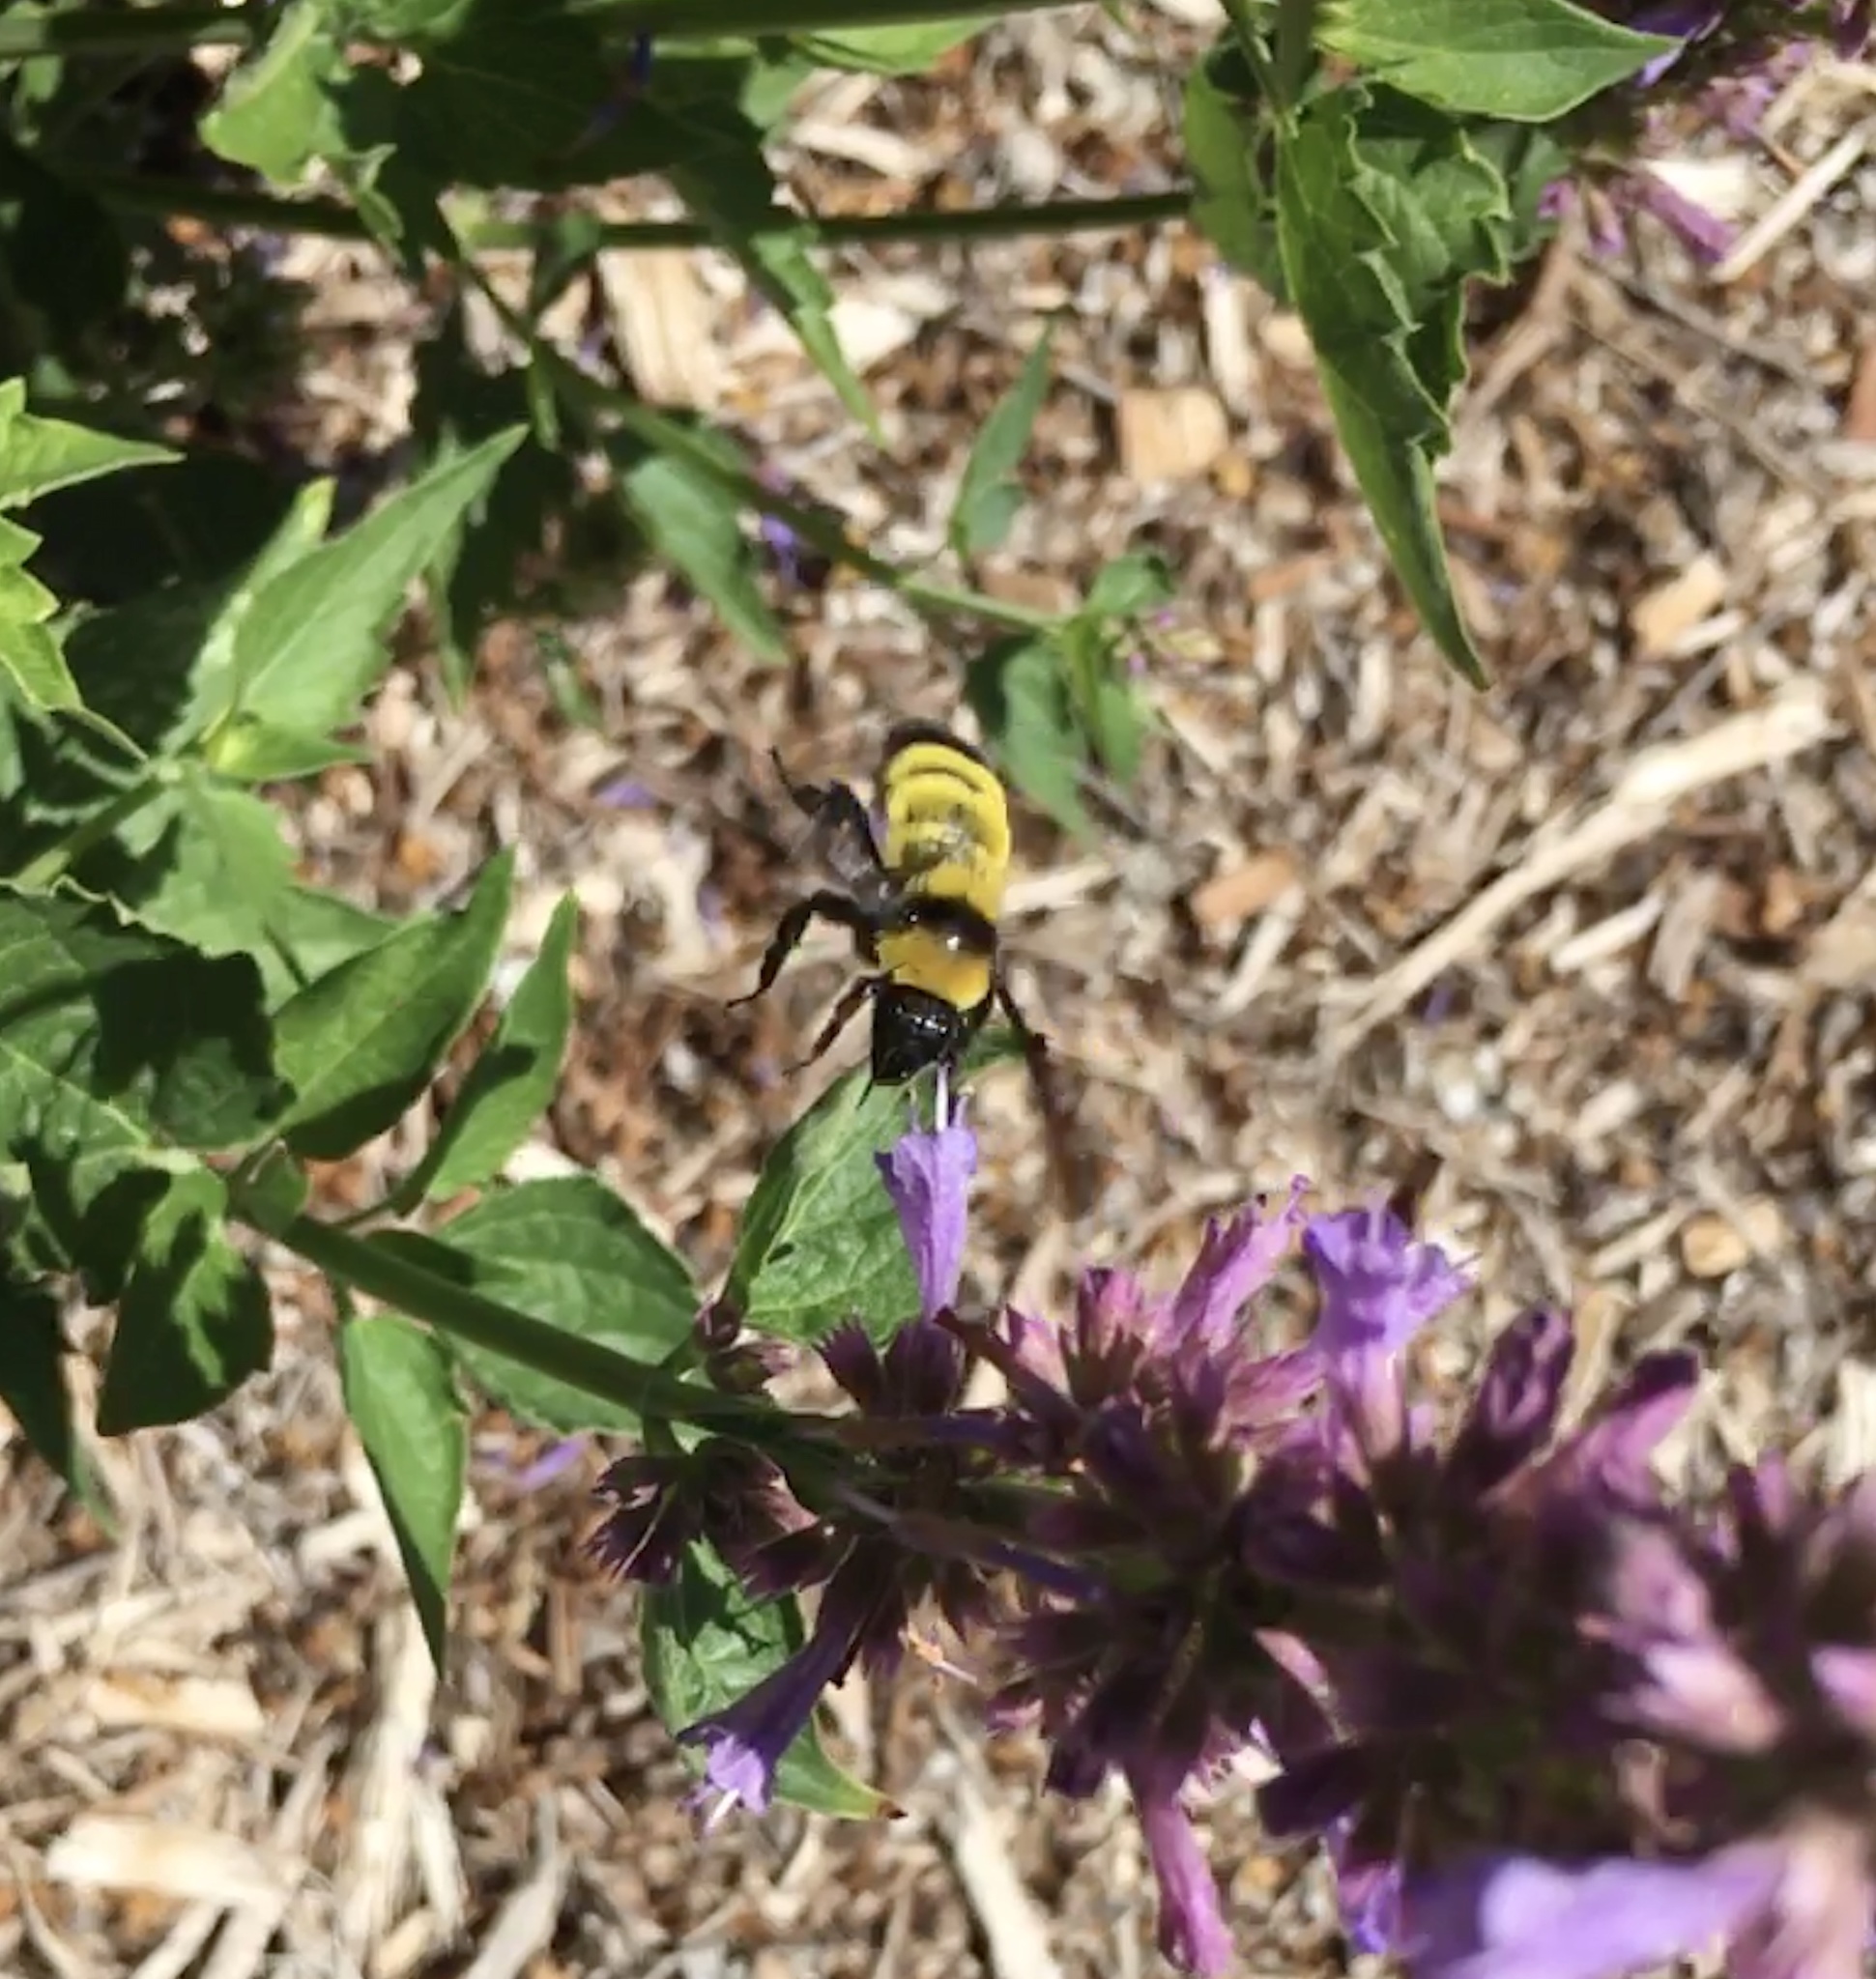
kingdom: Animalia
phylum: Arthropoda
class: Insecta
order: Hymenoptera
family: Apidae
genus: Bombus
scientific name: Bombus sonorus
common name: Sonoran bumble bee
